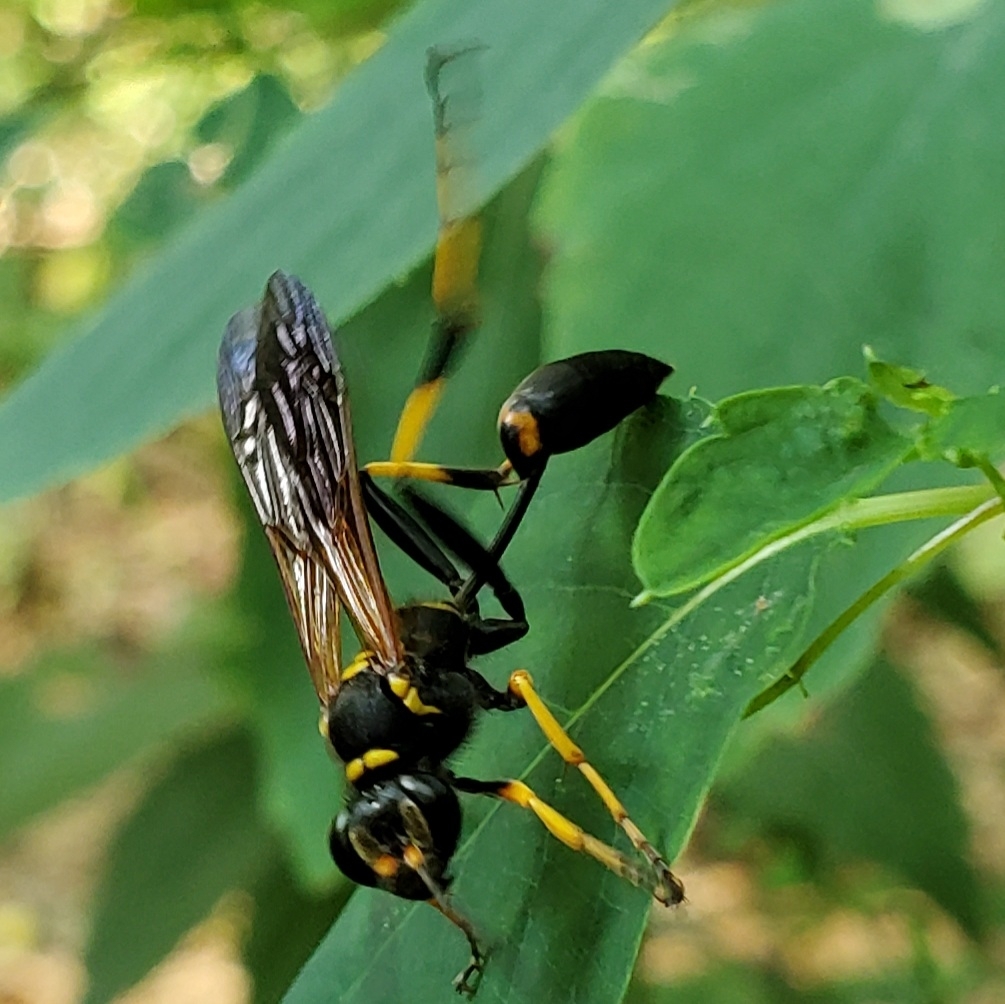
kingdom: Animalia
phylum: Arthropoda
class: Insecta
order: Hymenoptera
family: Sphecidae
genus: Sceliphron
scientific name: Sceliphron caementarium
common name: Mud dauber
